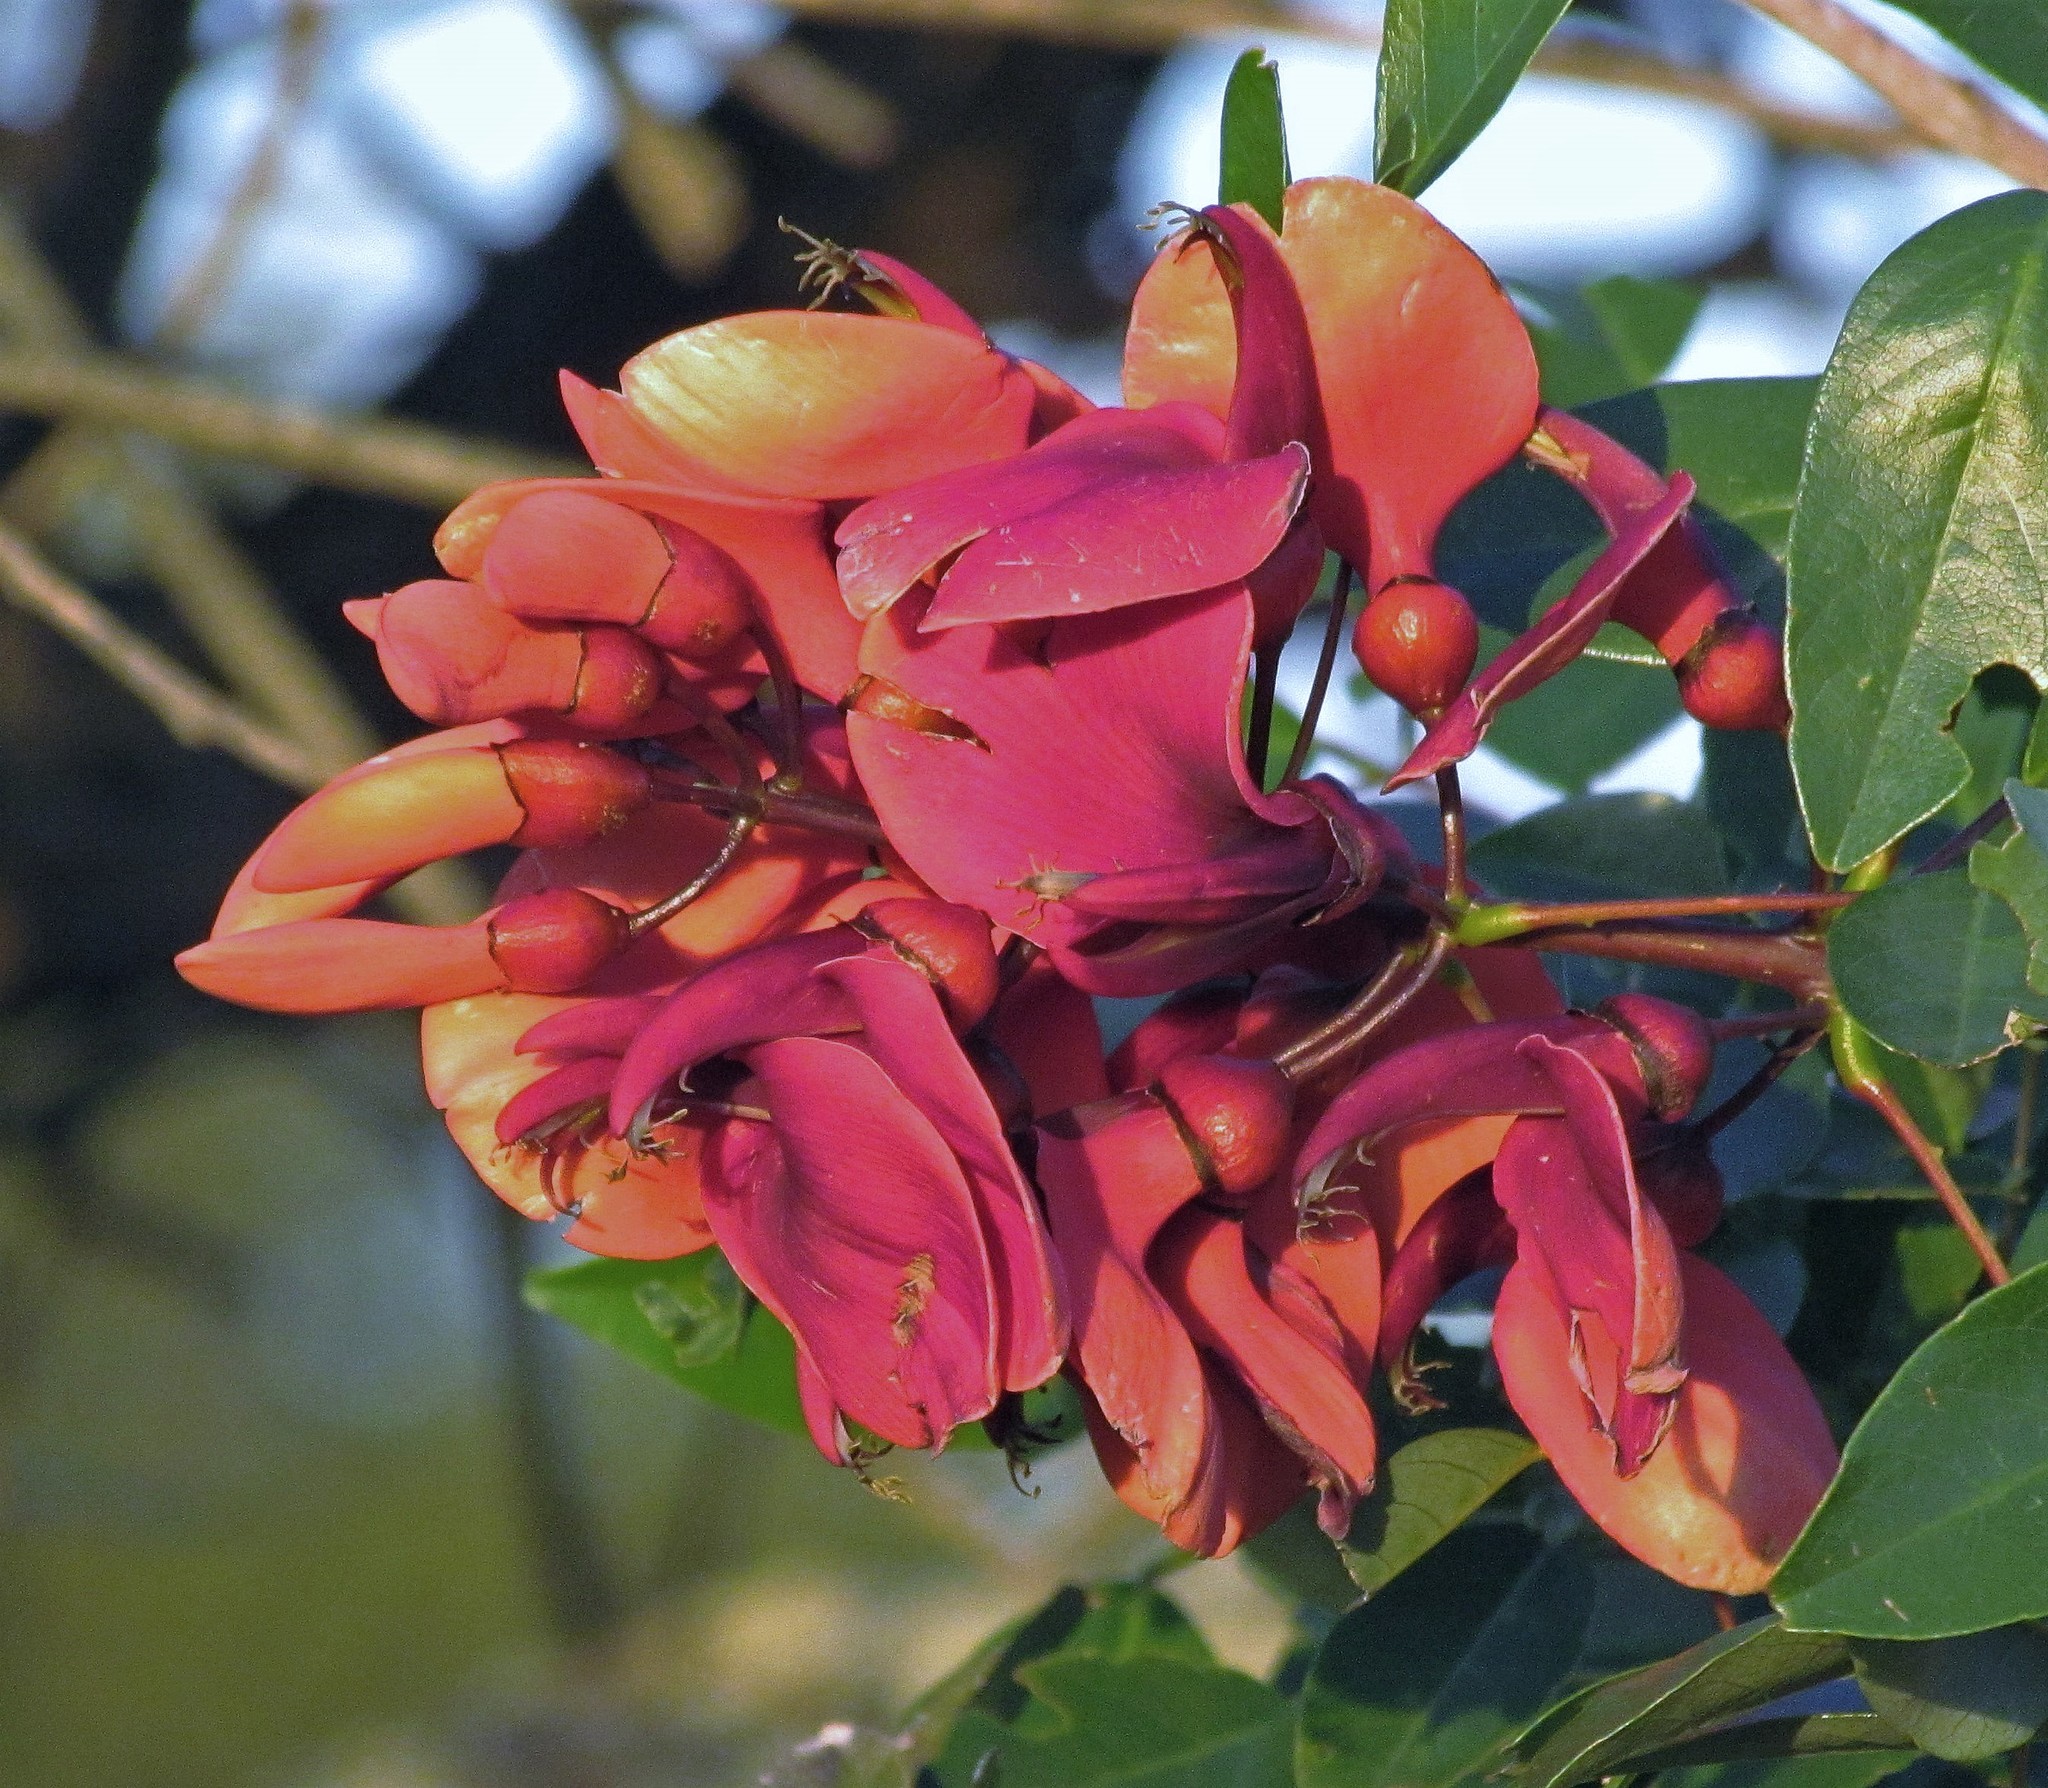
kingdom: Plantae
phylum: Tracheophyta
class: Magnoliopsida
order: Fabales
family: Fabaceae
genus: Erythrina
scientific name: Erythrina crista-galli
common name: Cockspur coral tree
